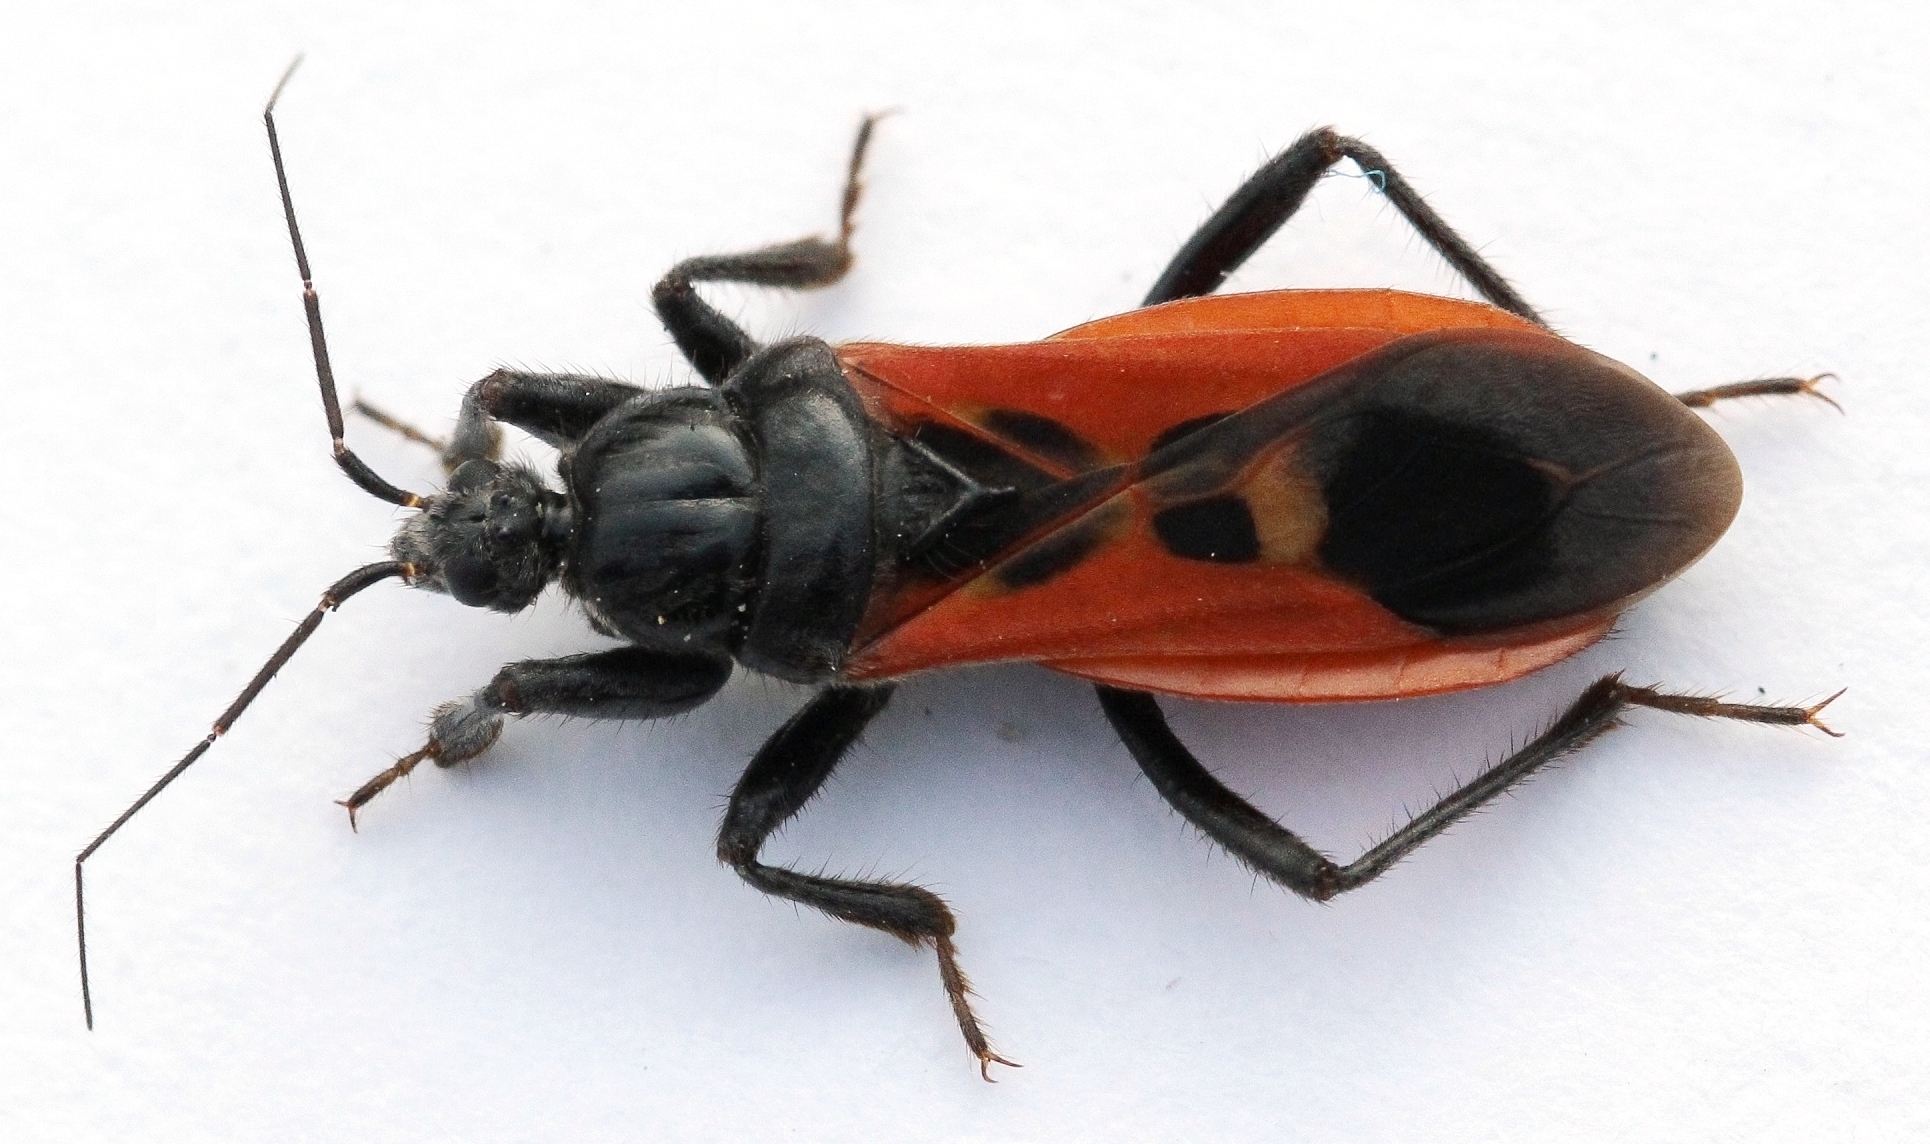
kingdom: Animalia
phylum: Arthropoda
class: Insecta
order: Hemiptera
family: Reduviidae
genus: Peirates
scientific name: Peirates hybridus
